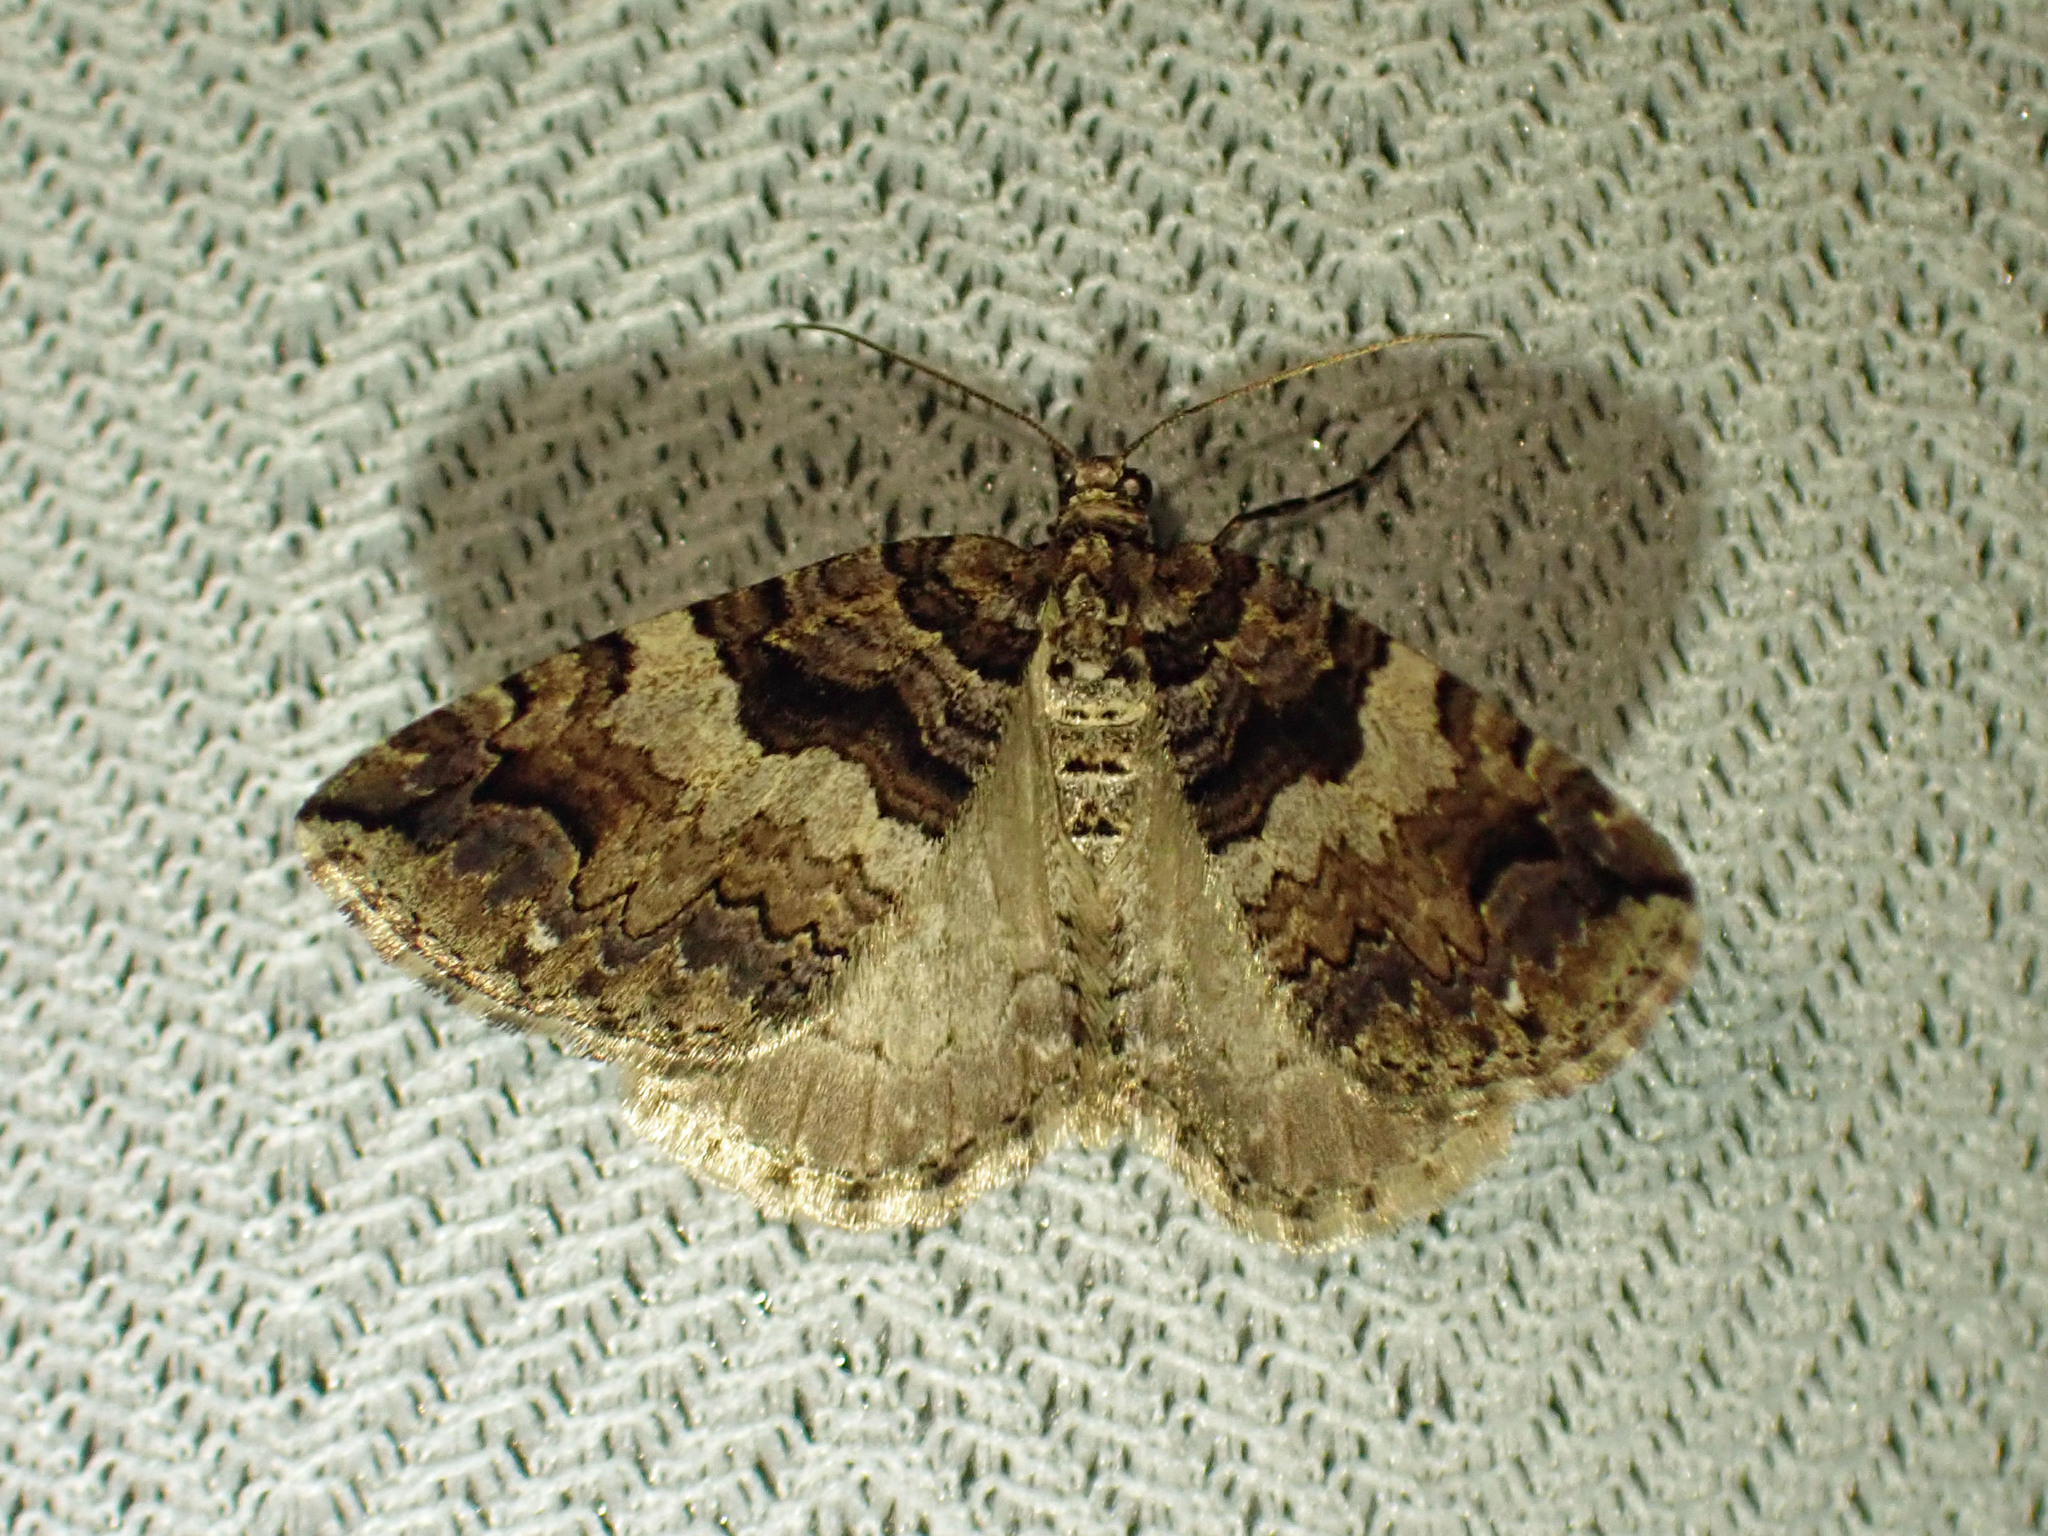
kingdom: Animalia
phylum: Arthropoda
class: Insecta
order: Lepidoptera
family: Geometridae
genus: Anticlea
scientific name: Anticlea vasiliata
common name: Variable carpet
